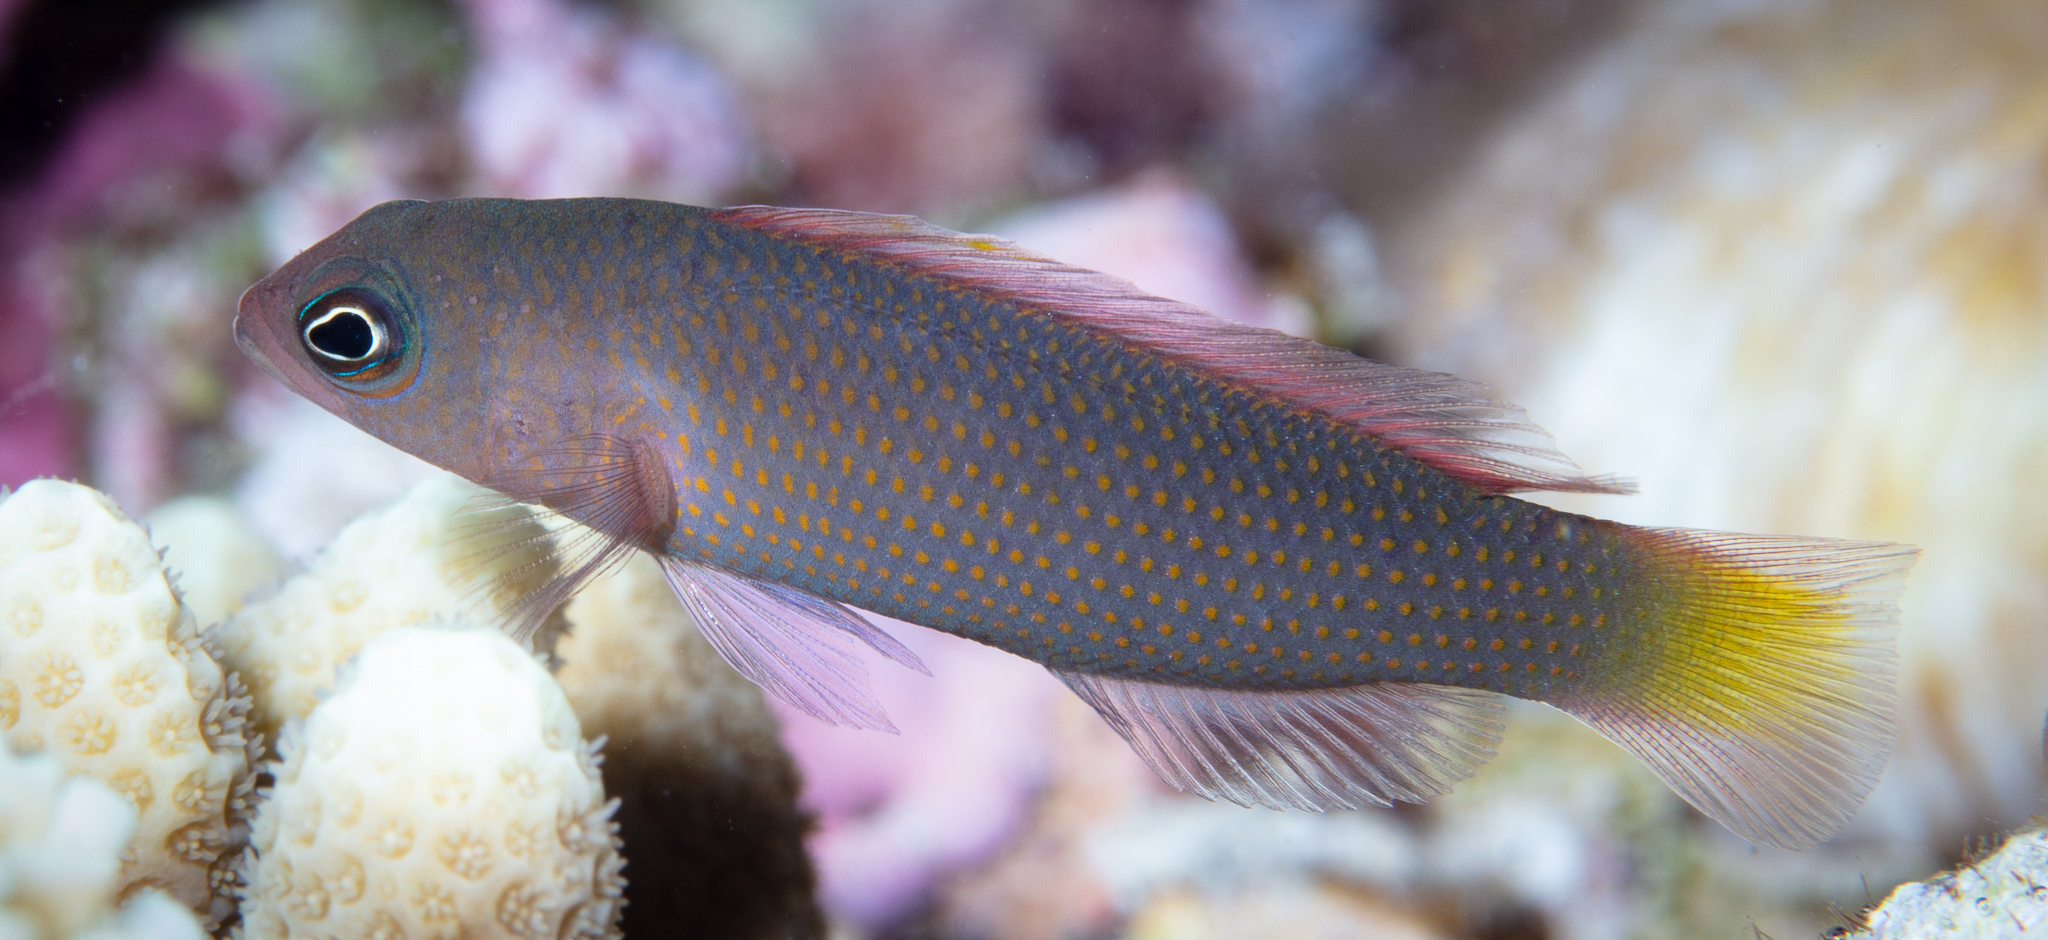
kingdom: Animalia
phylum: Chordata
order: Perciformes
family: Pseudochromidae
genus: Pseudochromis
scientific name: Pseudochromis marshallensis
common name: Marshall dottyback
